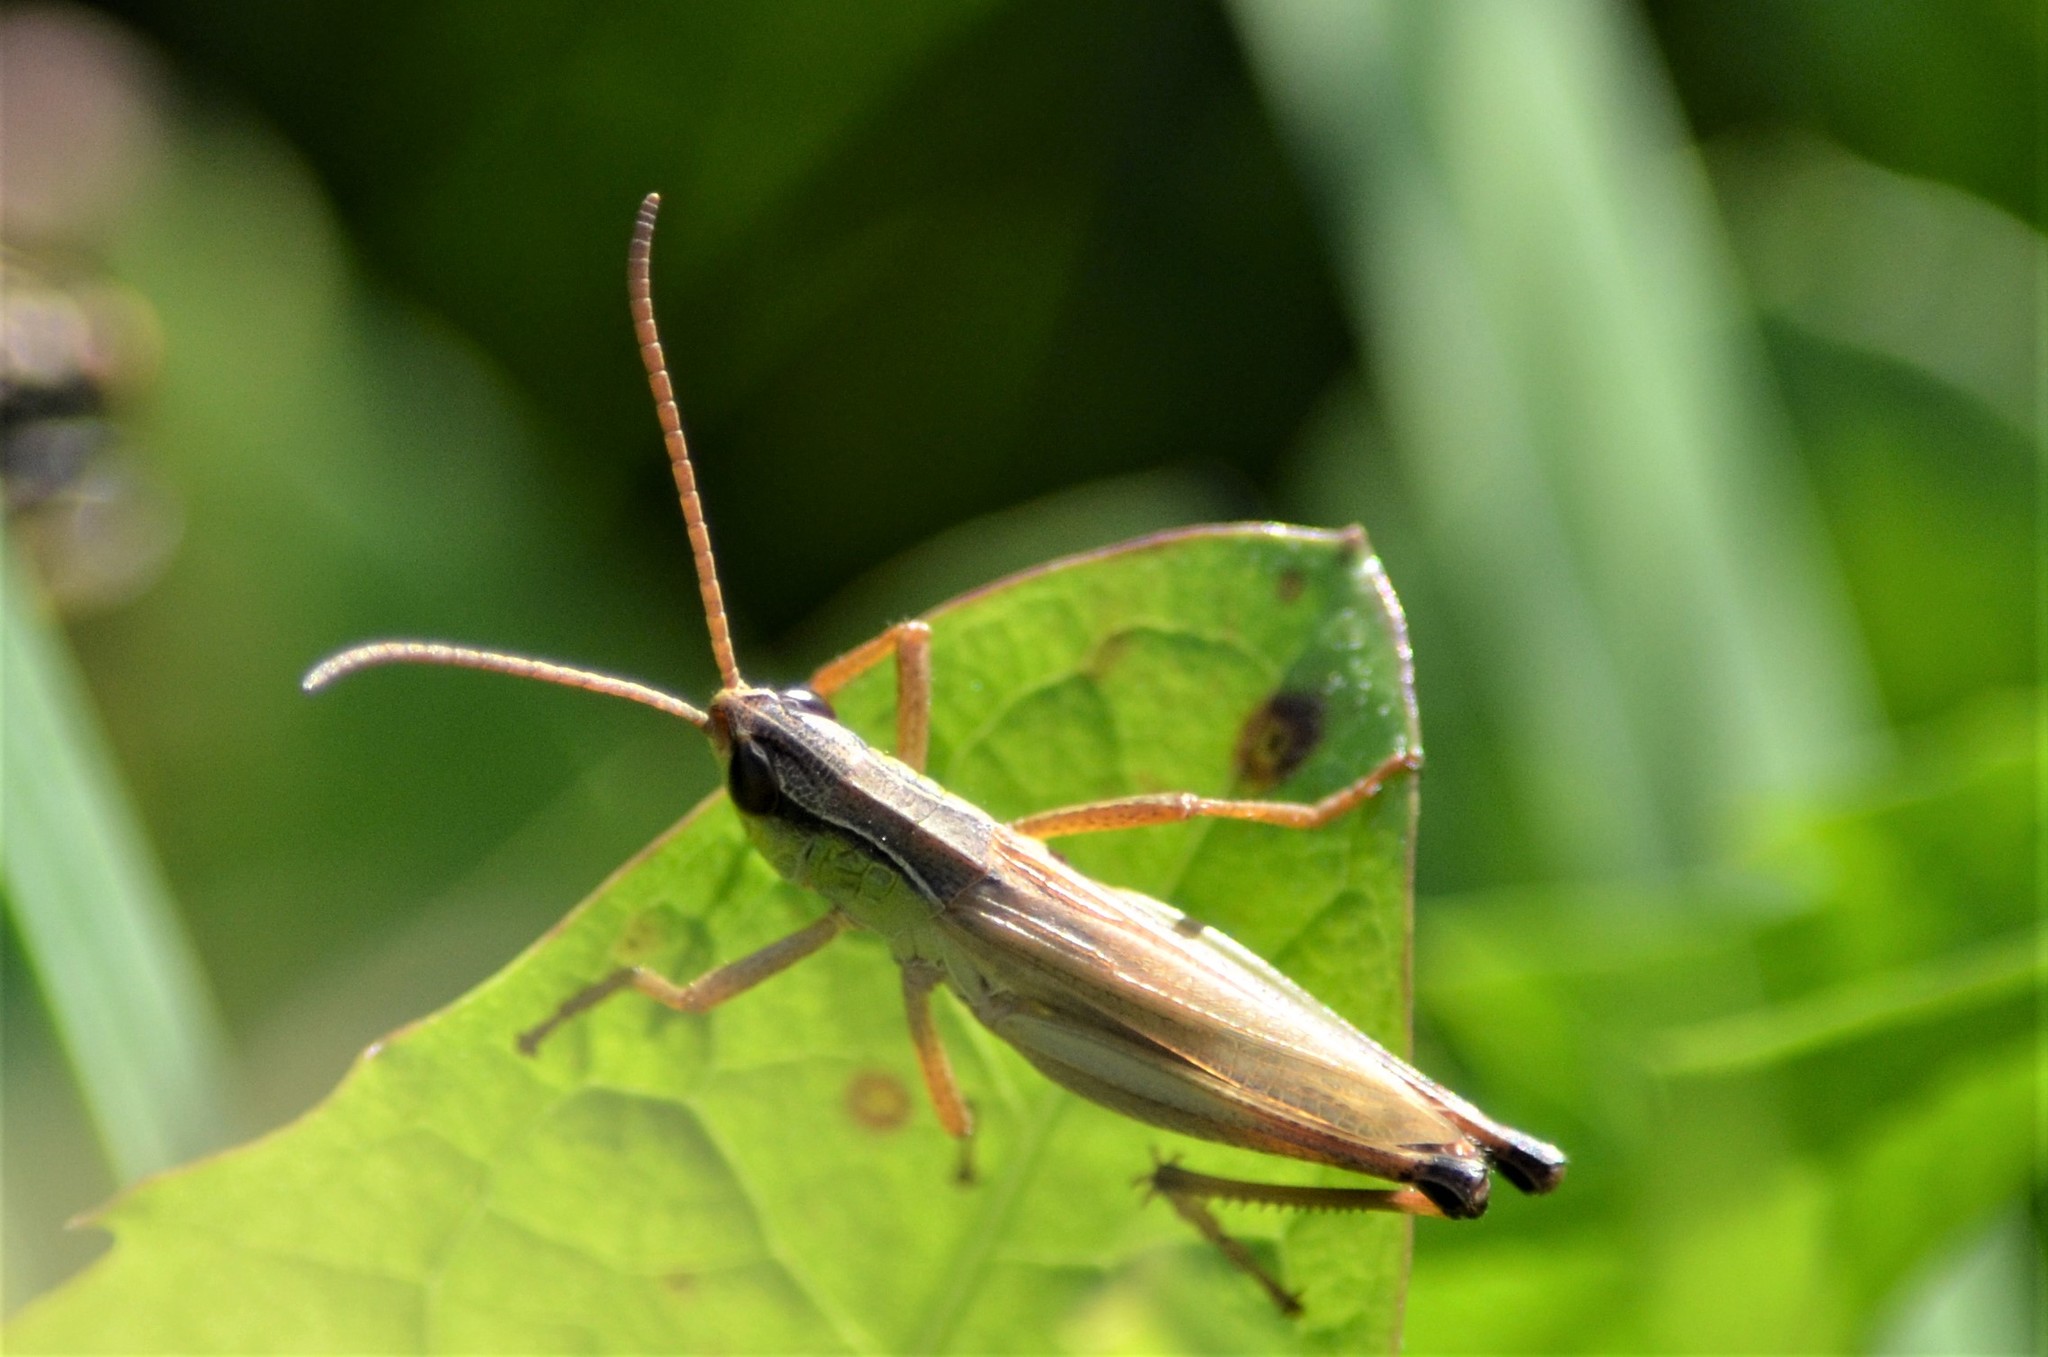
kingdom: Animalia
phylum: Arthropoda
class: Insecta
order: Orthoptera
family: Acrididae
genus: Pseudochorthippus
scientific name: Pseudochorthippus parallelus
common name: Meadow grasshopper
